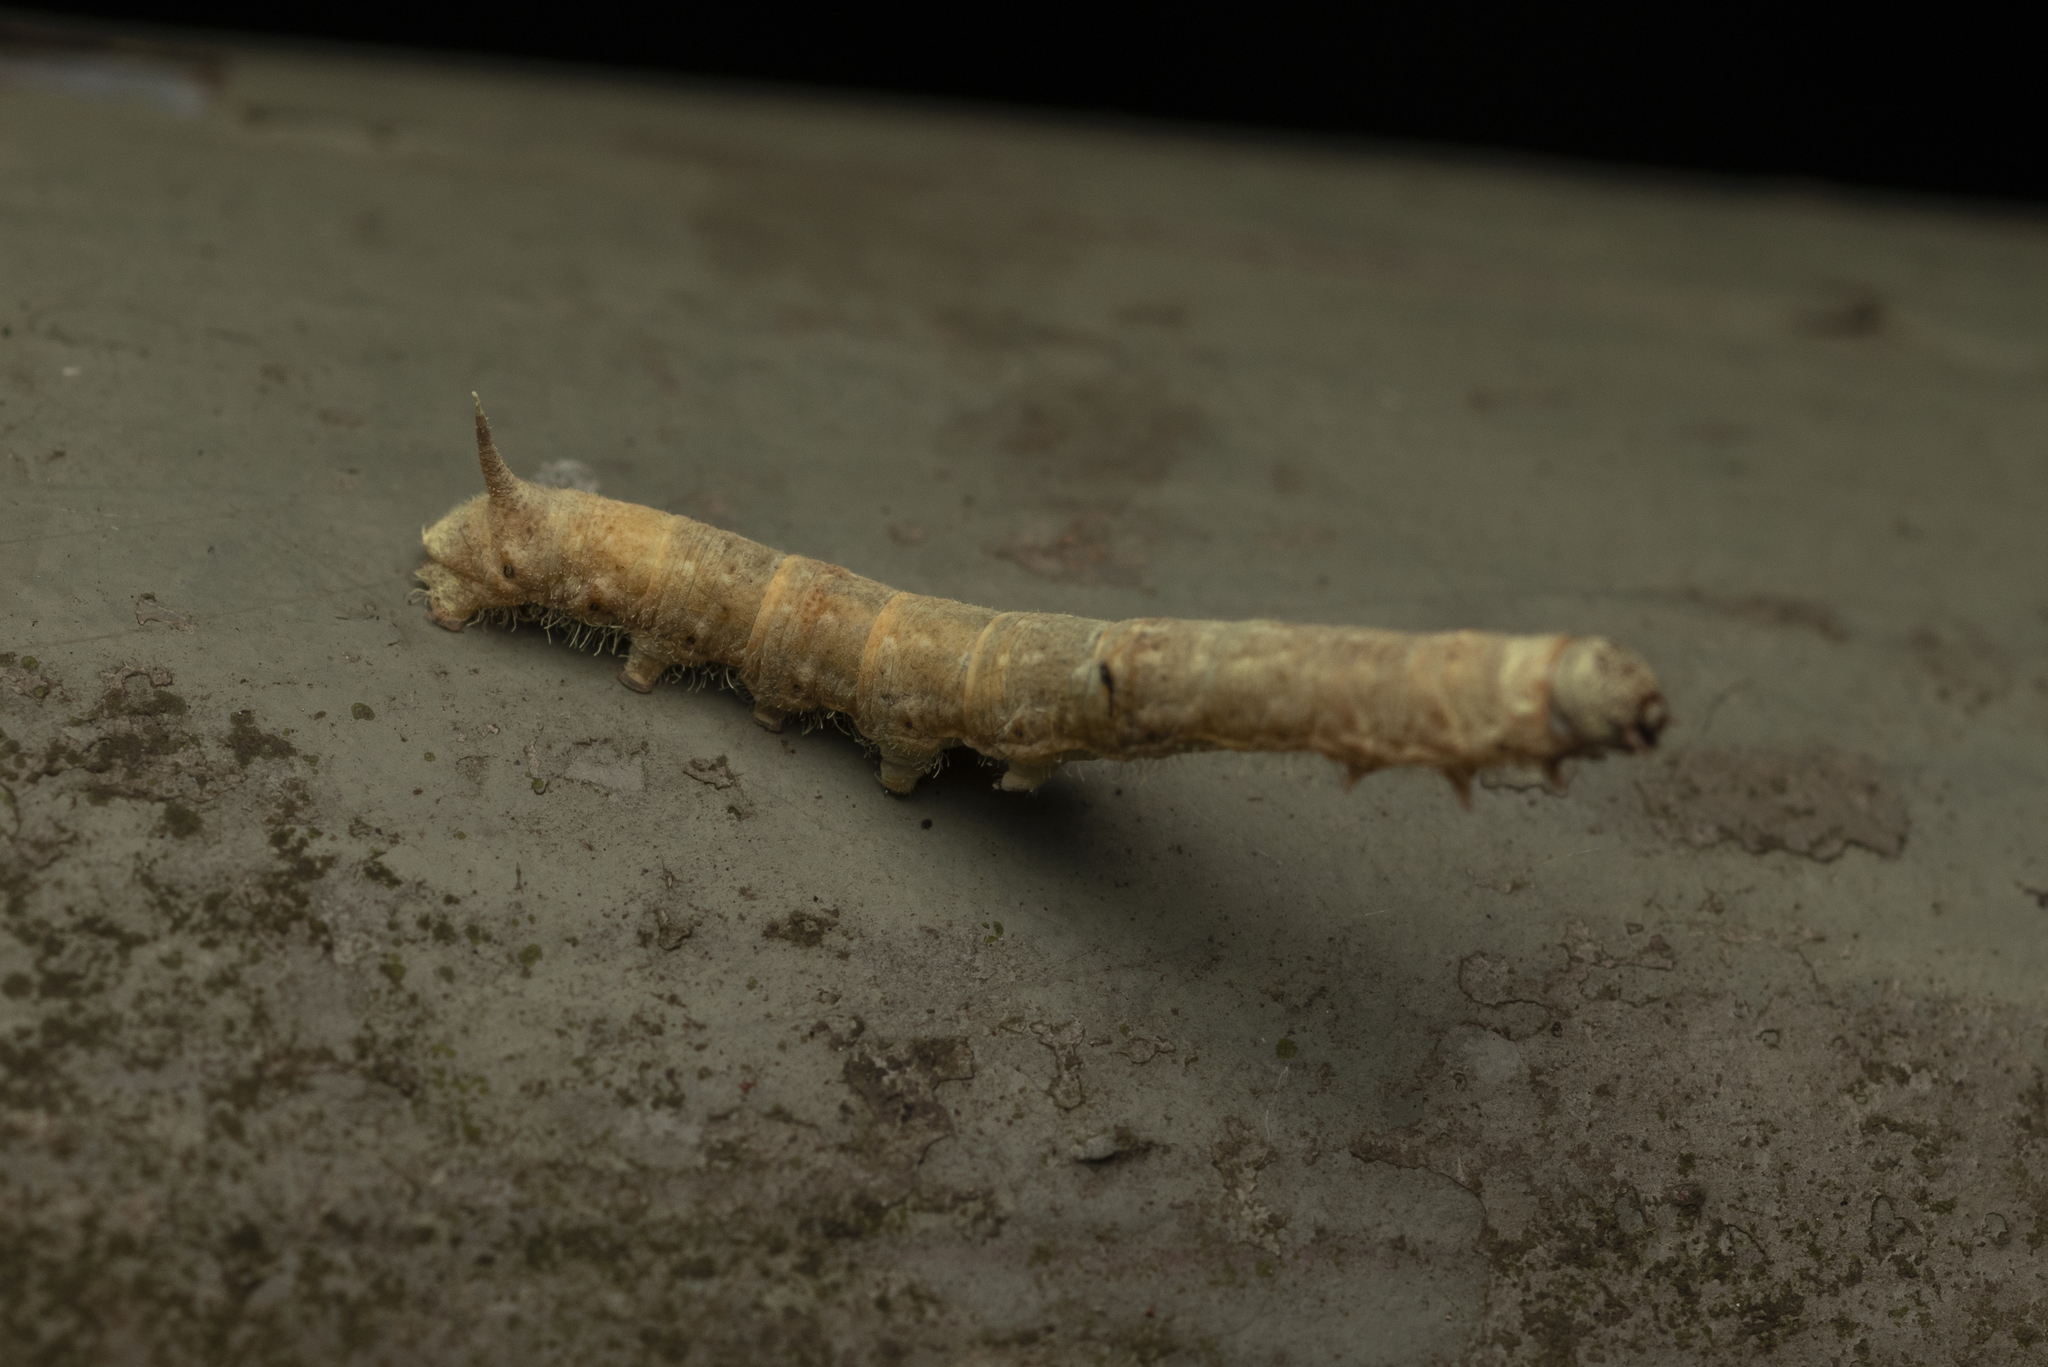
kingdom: Animalia
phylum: Arthropoda
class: Insecta
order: Lepidoptera
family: Bombycidae
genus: Trilocha
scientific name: Trilocha varians
